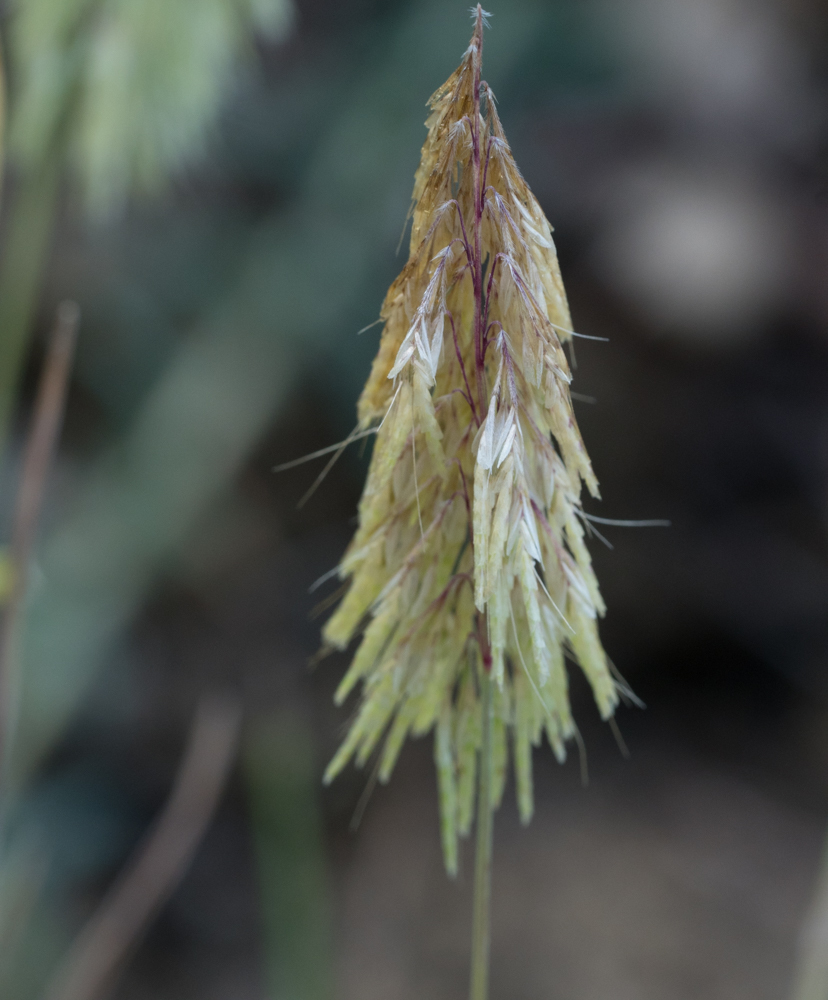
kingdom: Plantae
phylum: Tracheophyta
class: Liliopsida
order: Poales
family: Poaceae
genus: Lamarckia
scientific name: Lamarckia aurea
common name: Golden dog's-tail
